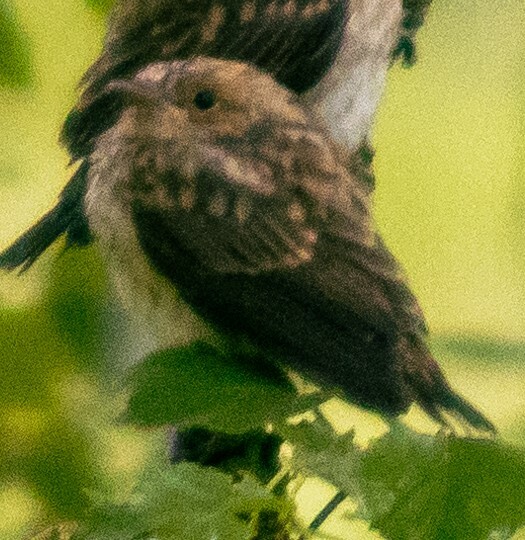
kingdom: Animalia
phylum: Chordata
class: Aves
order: Passeriformes
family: Certhiidae
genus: Certhia
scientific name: Certhia familiaris
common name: Eurasian treecreeper
